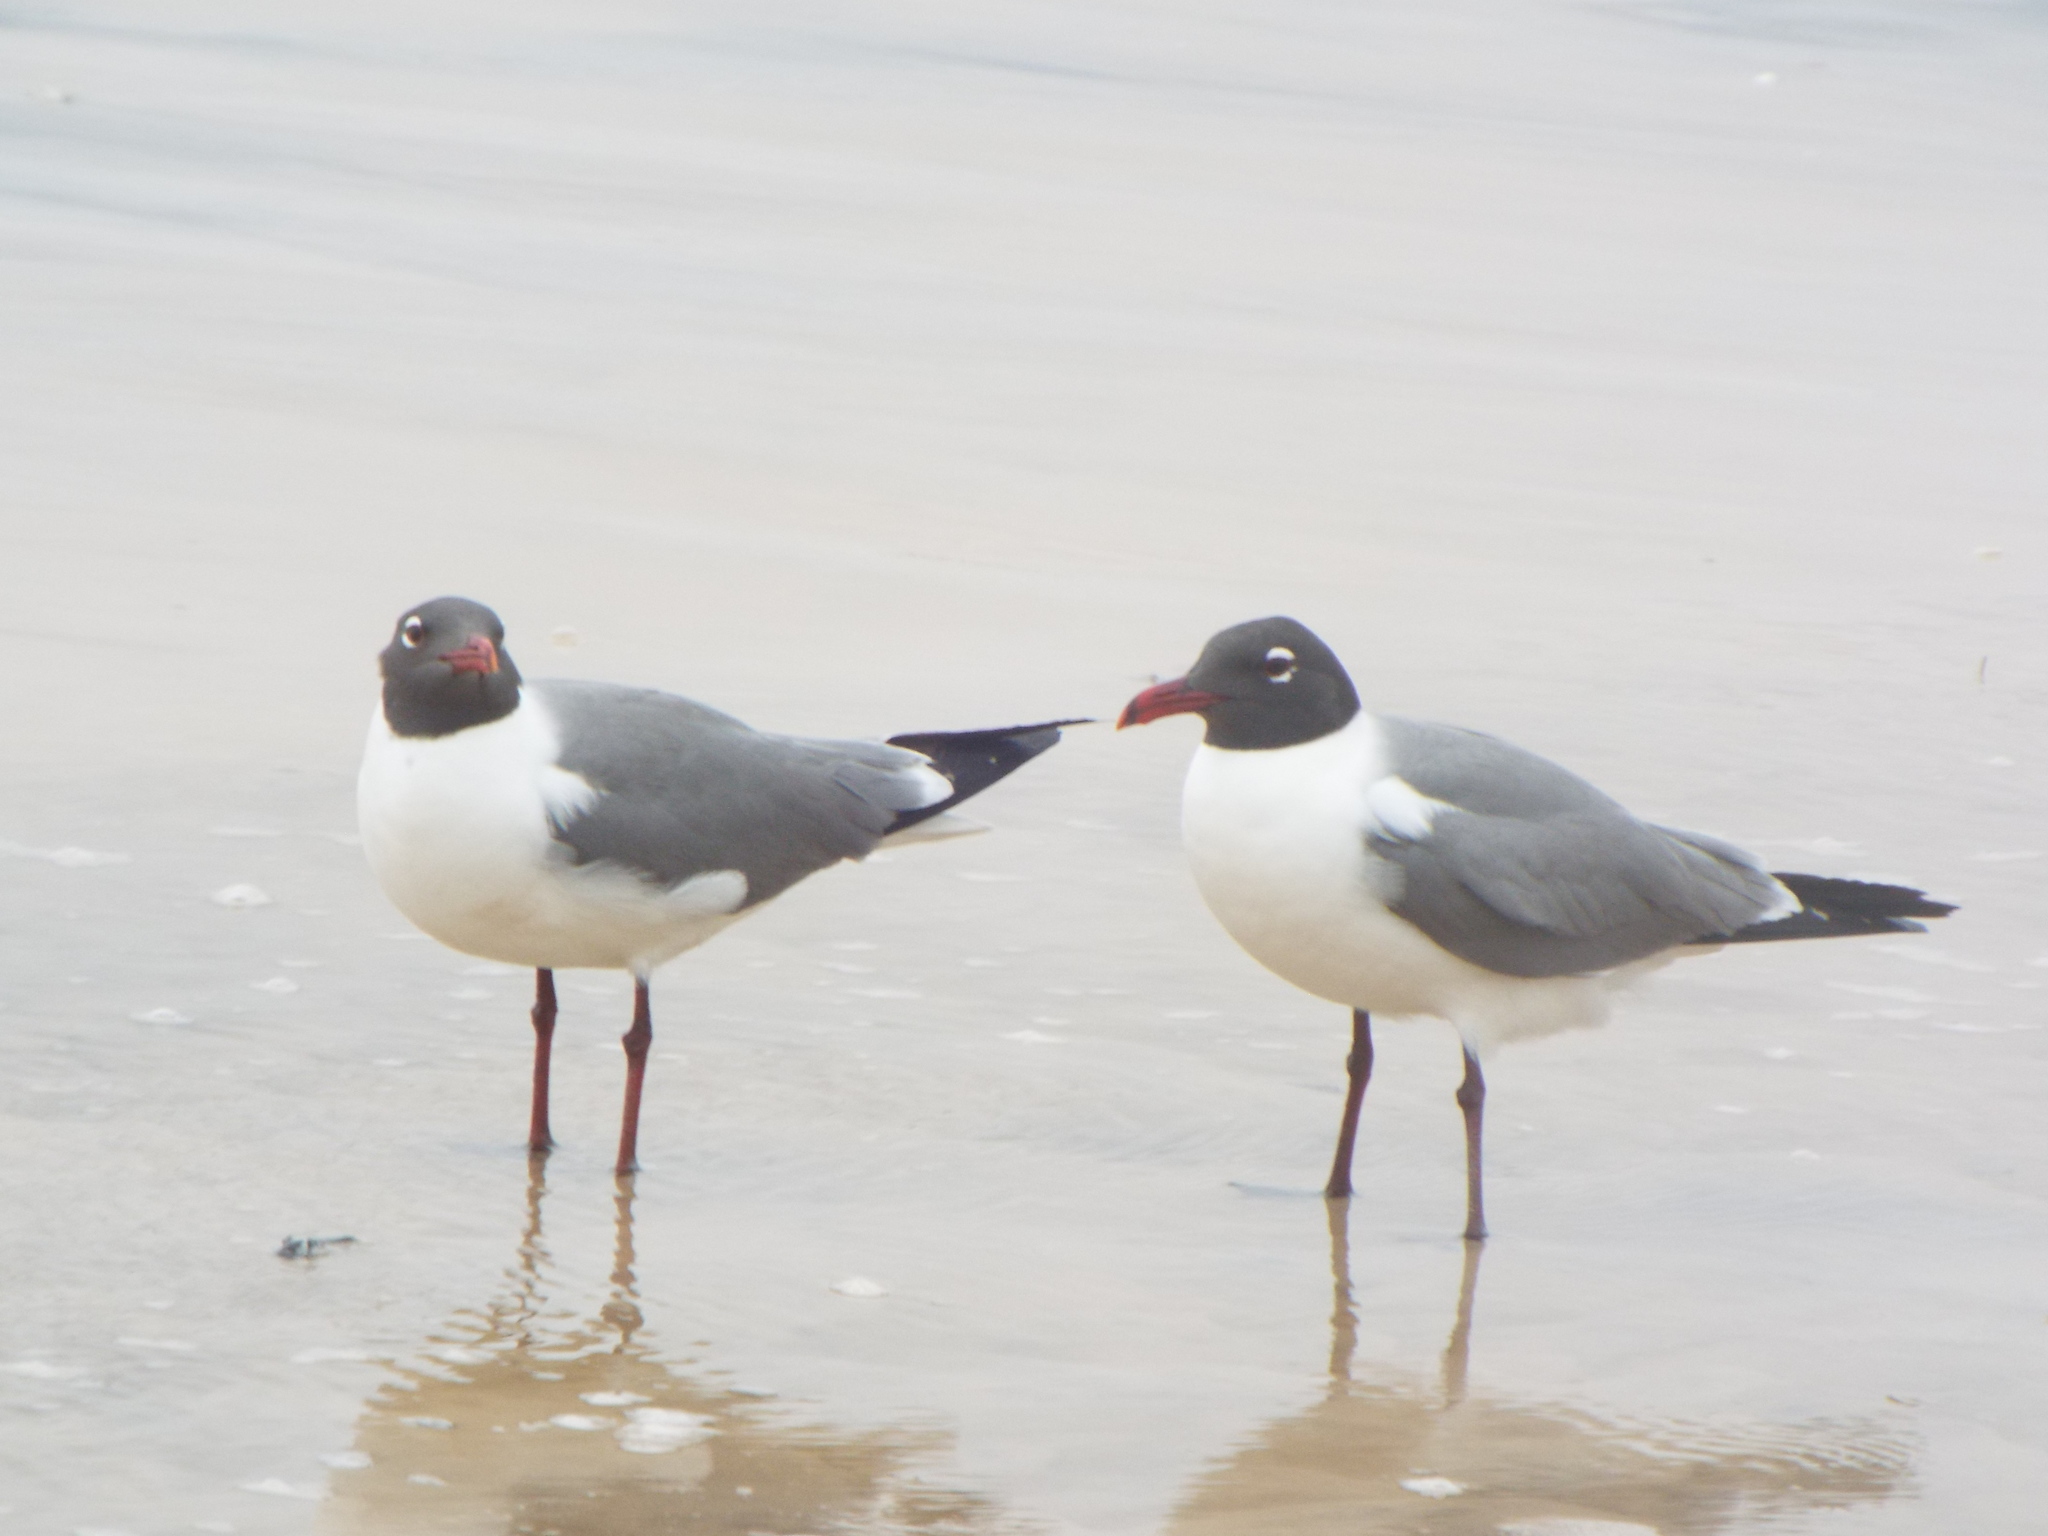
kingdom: Animalia
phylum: Chordata
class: Aves
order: Charadriiformes
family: Laridae
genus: Leucophaeus
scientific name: Leucophaeus atricilla
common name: Laughing gull
